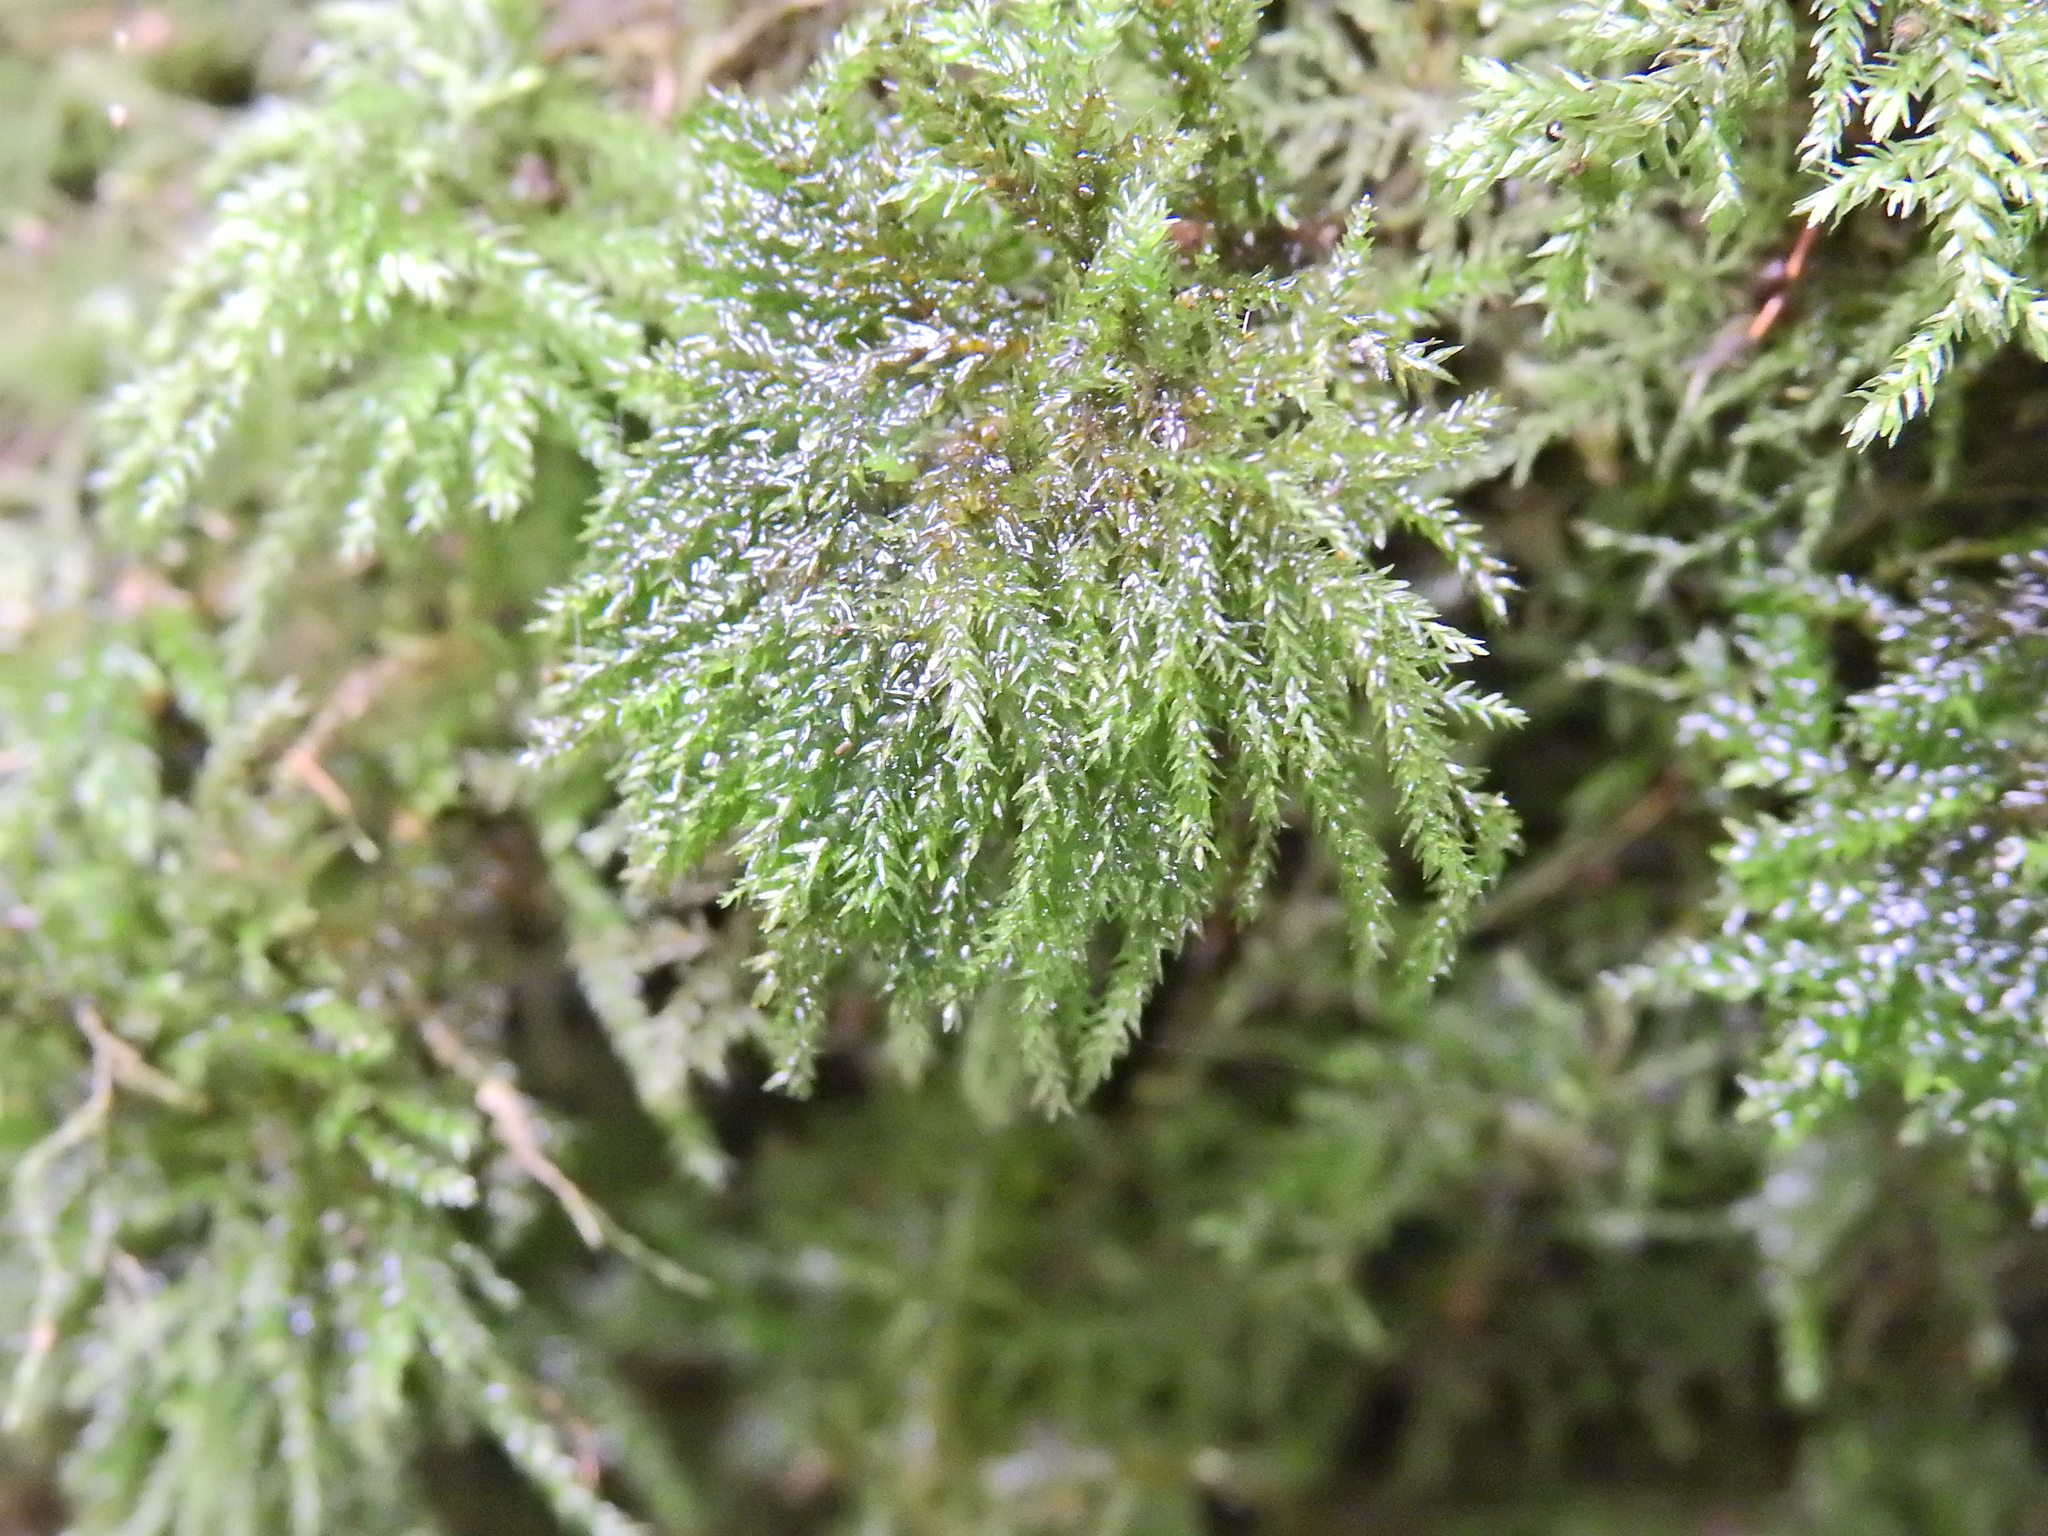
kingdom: Plantae
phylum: Bryophyta
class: Bryopsida
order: Hypnales
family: Neckeraceae
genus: Thamnobryum
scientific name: Thamnobryum alopecurum
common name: Fox-tail feather-moss
